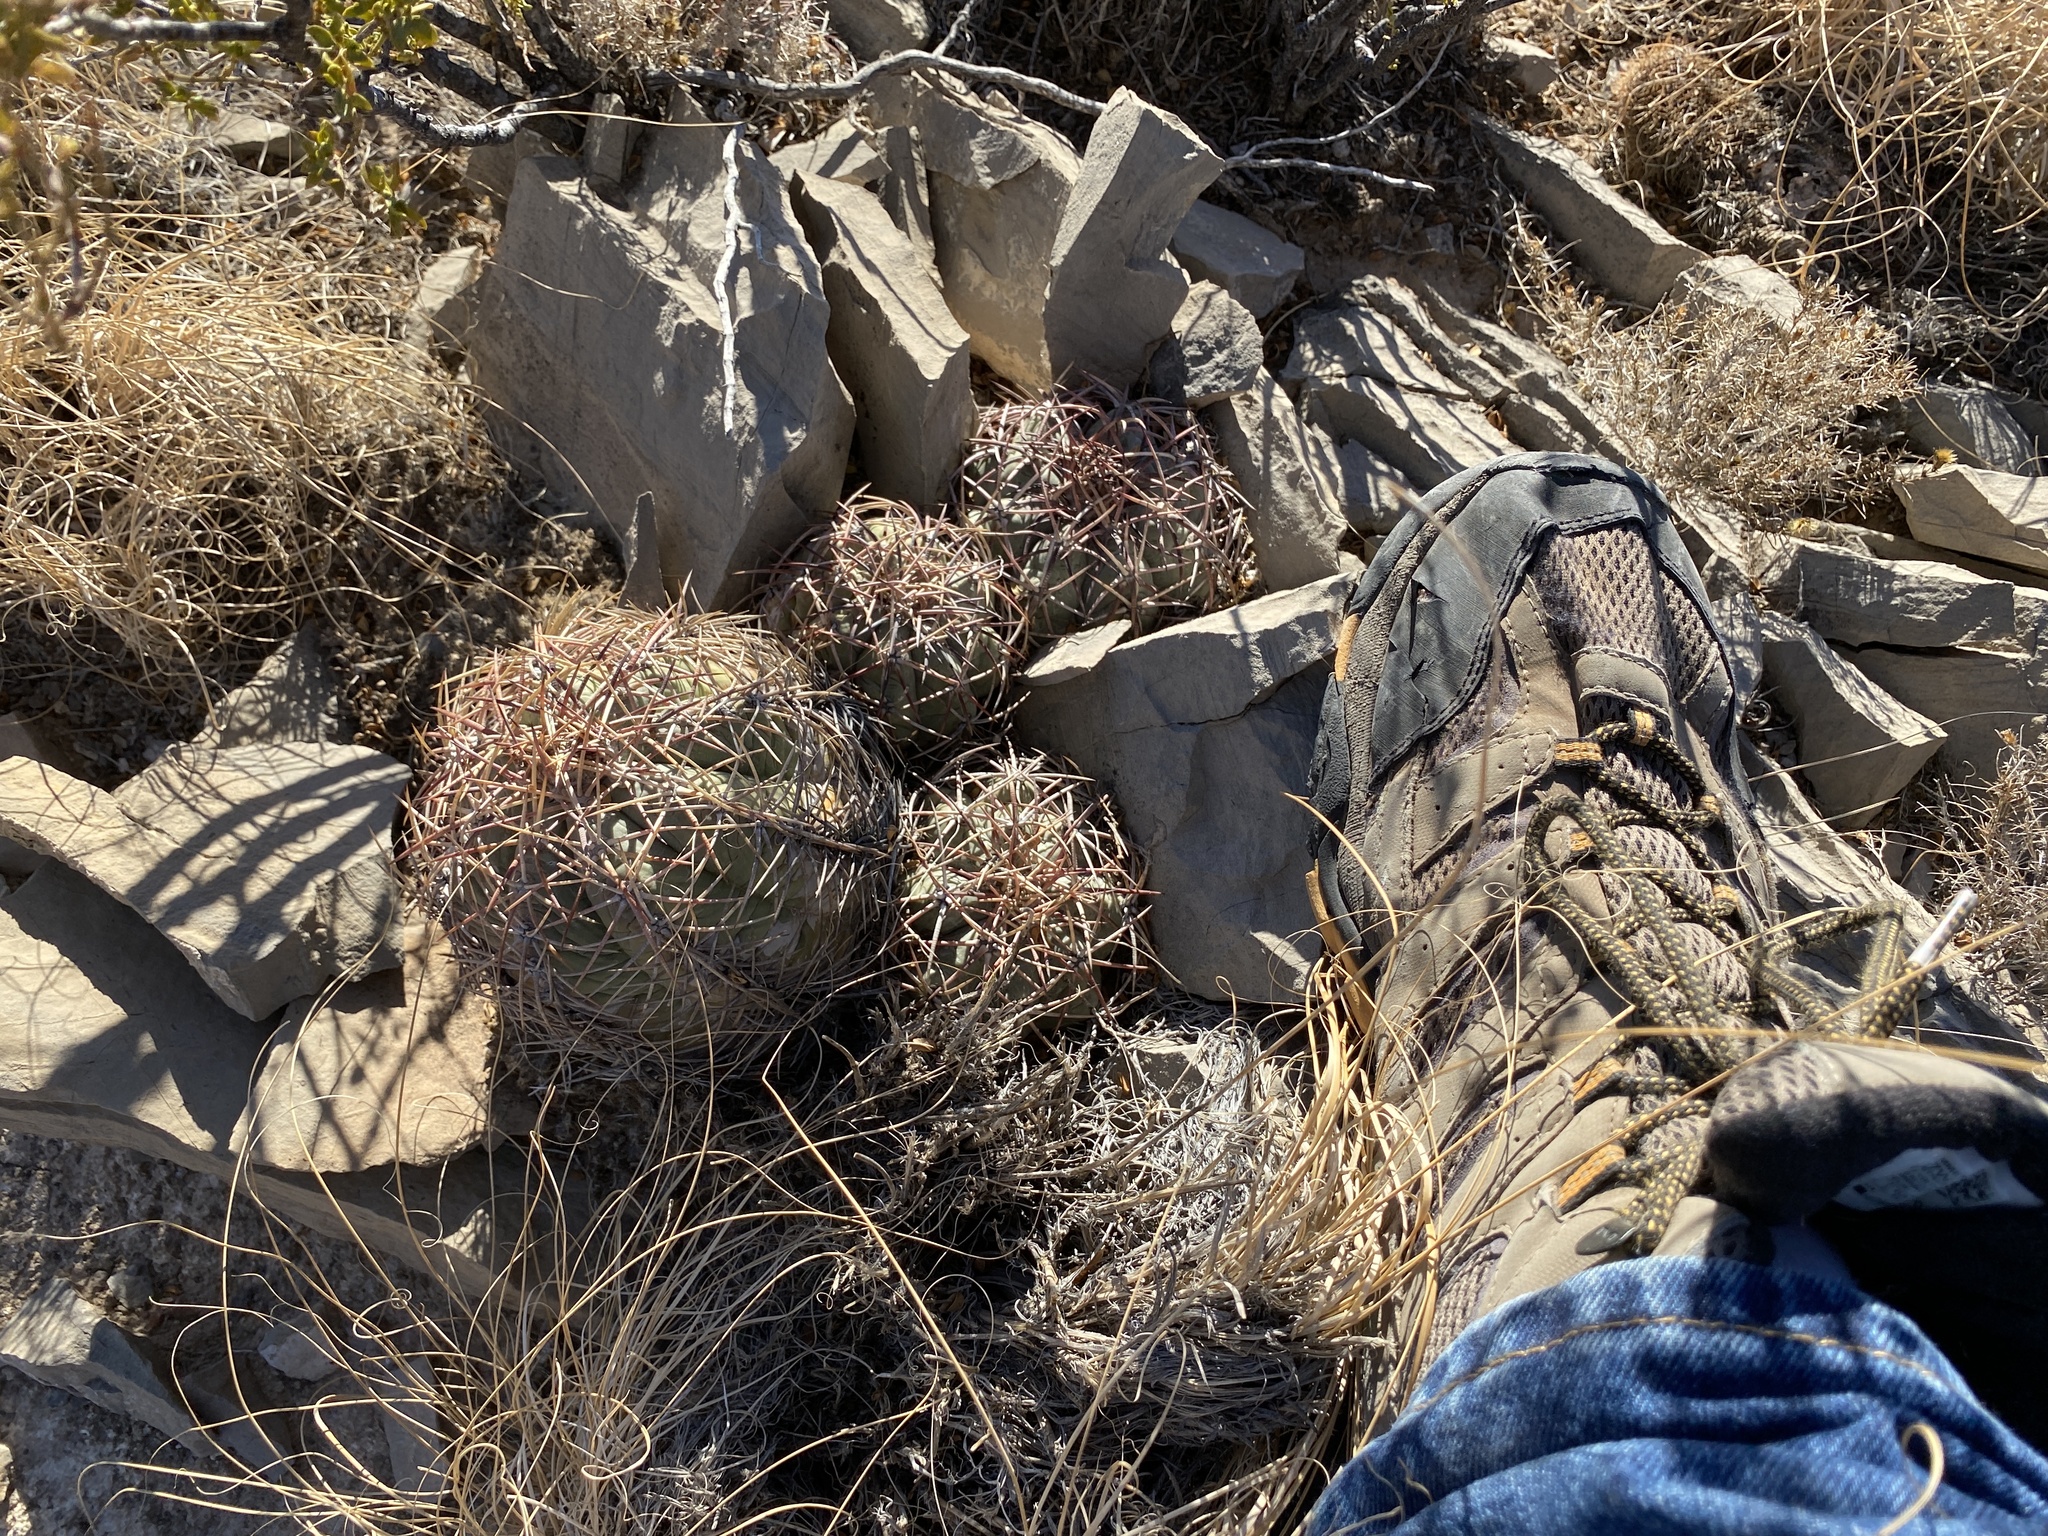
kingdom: Plantae
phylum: Tracheophyta
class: Magnoliopsida
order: Caryophyllales
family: Cactaceae
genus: Echinocactus
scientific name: Echinocactus horizonthalonius
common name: Devilshead
